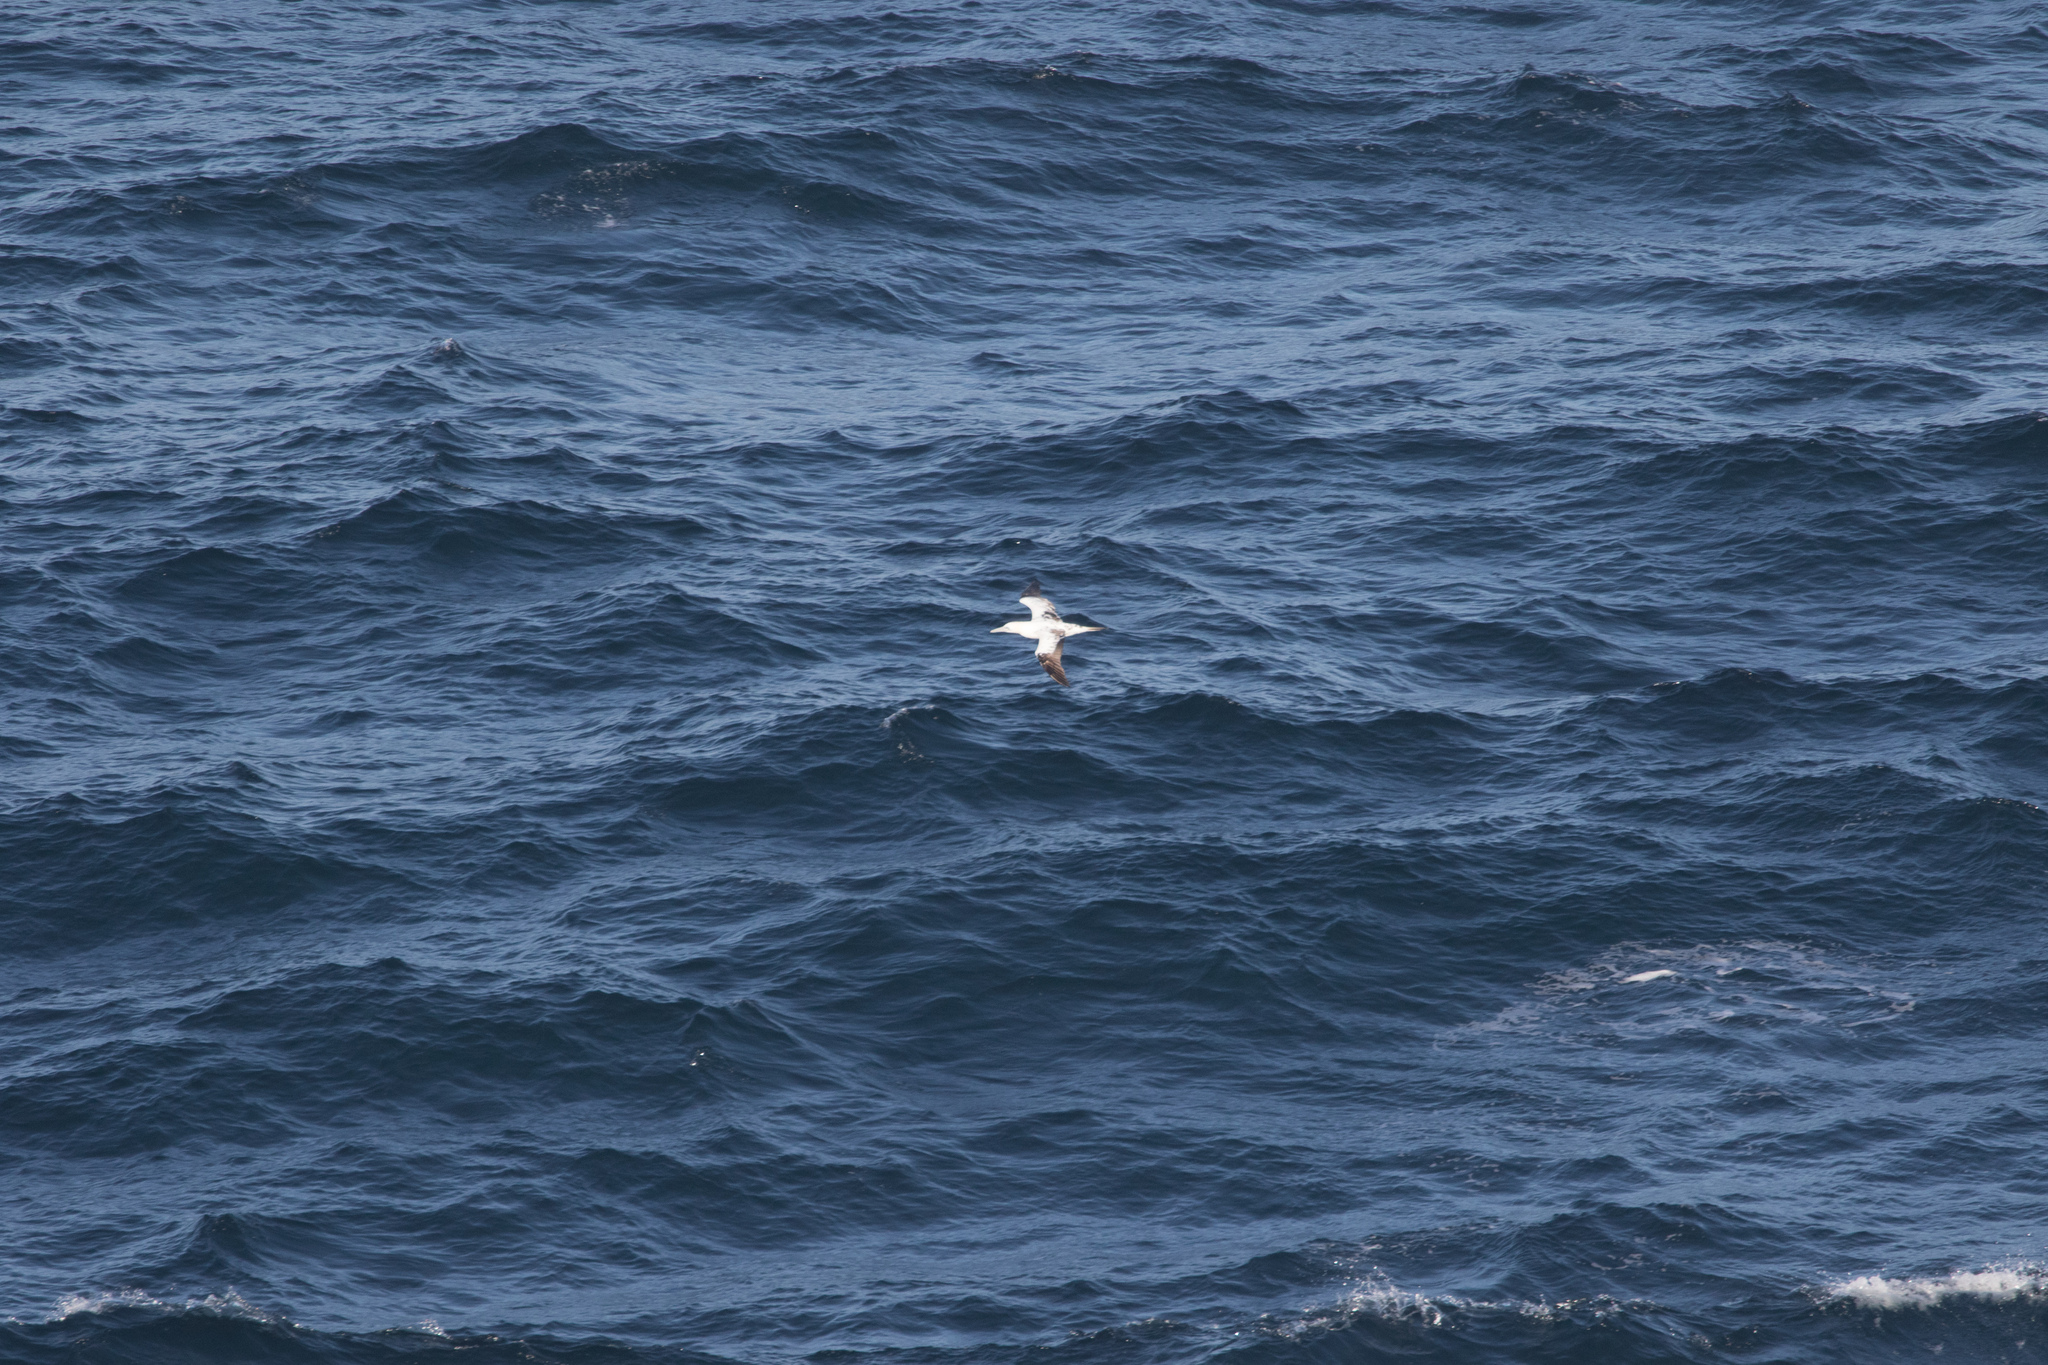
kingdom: Animalia
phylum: Chordata
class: Aves
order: Suliformes
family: Sulidae
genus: Morus
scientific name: Morus bassanus
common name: Northern gannet
